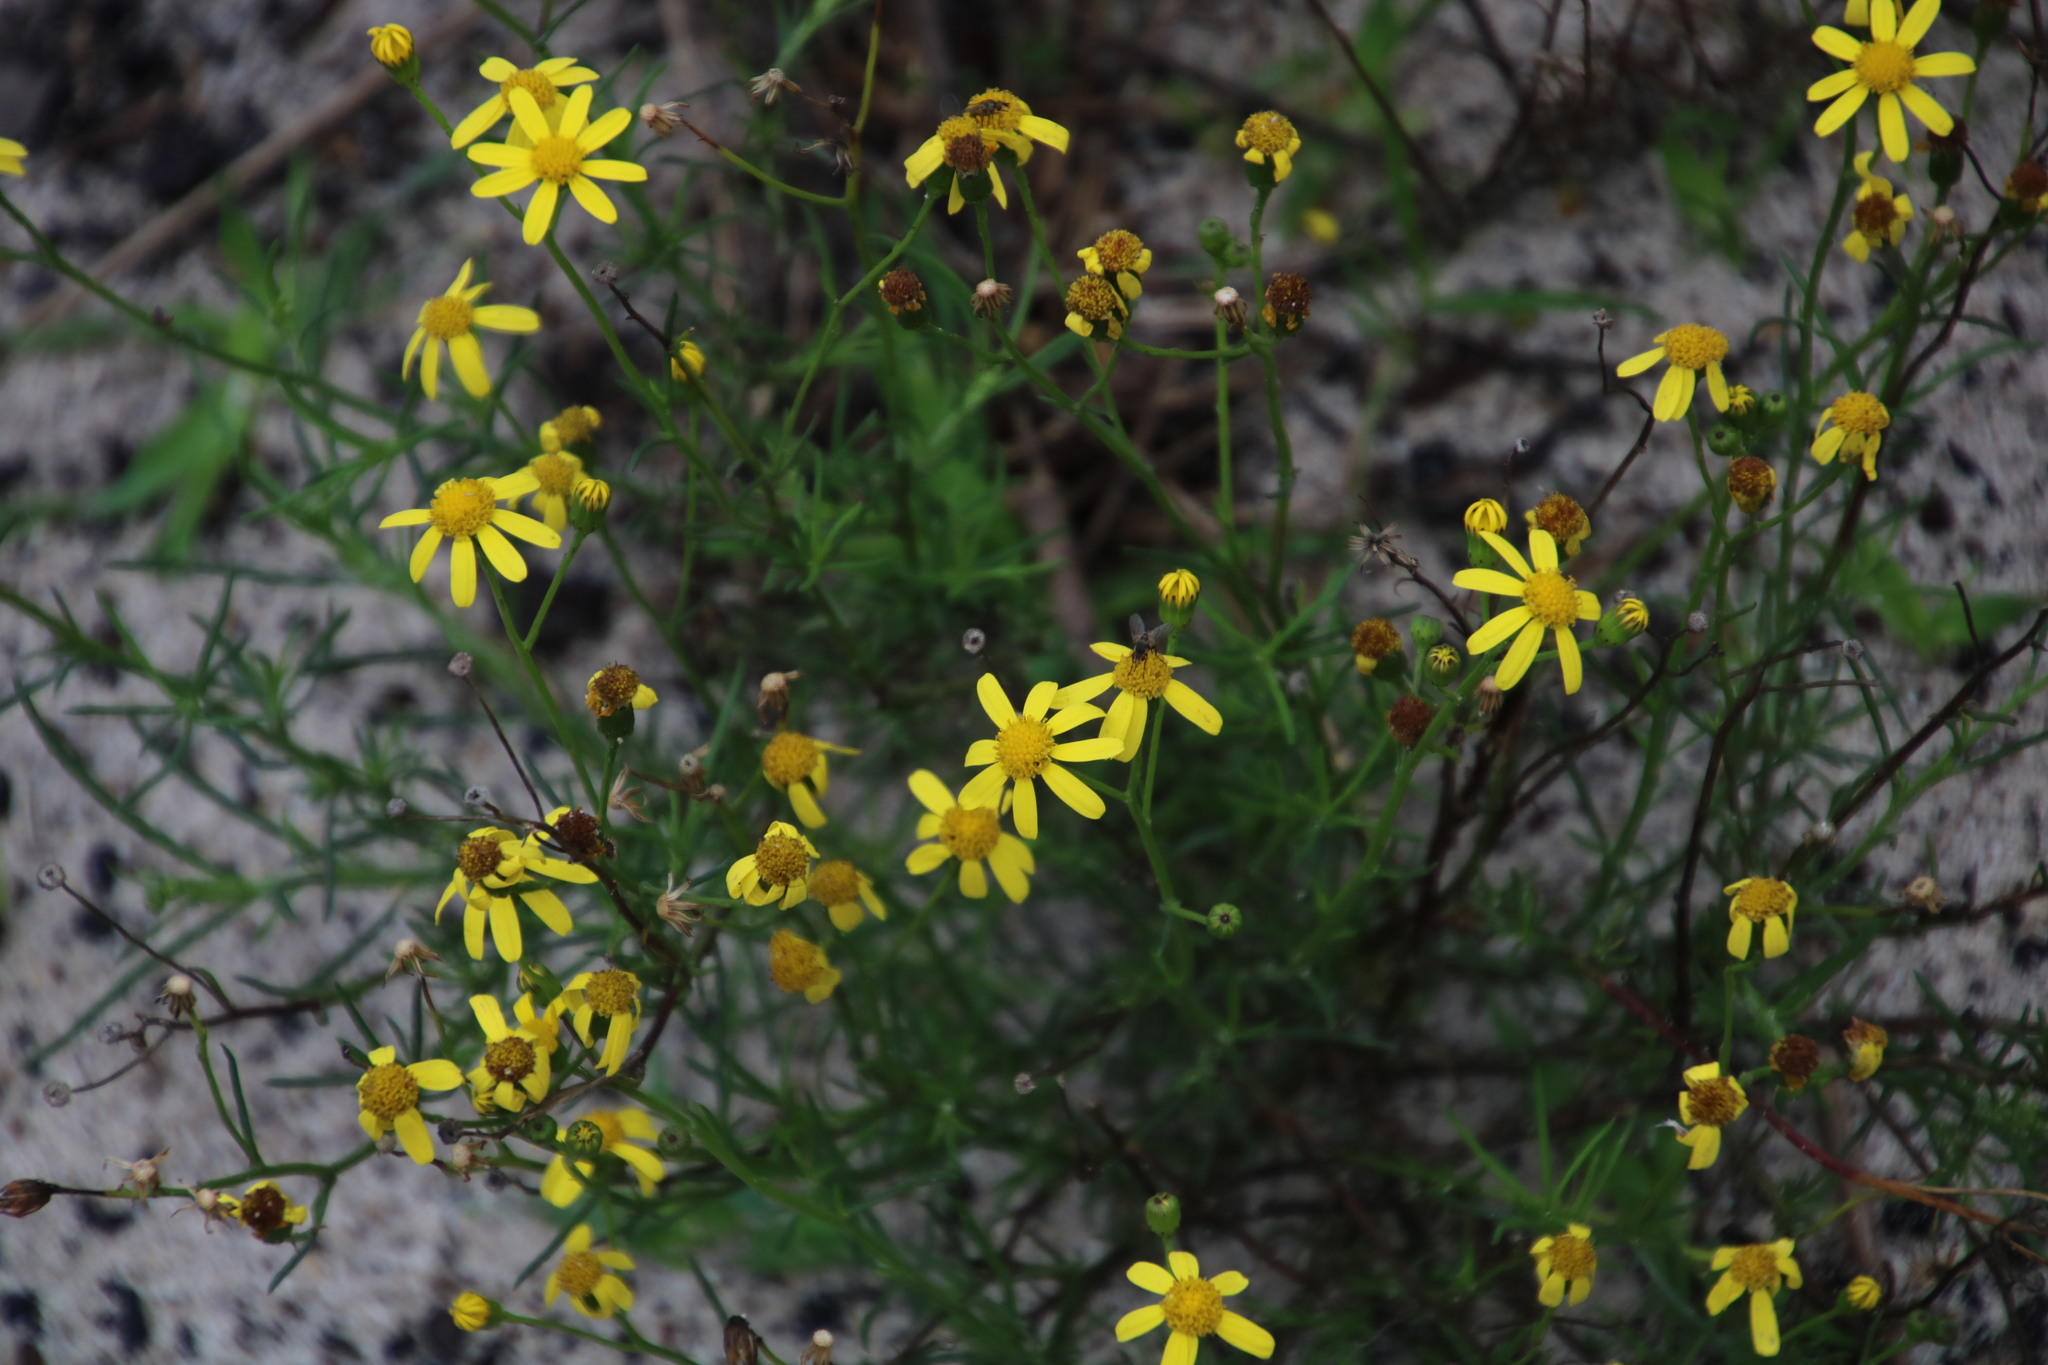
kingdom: Plantae
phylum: Tracheophyta
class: Magnoliopsida
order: Asterales
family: Asteraceae
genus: Senecio
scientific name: Senecio burchellii
